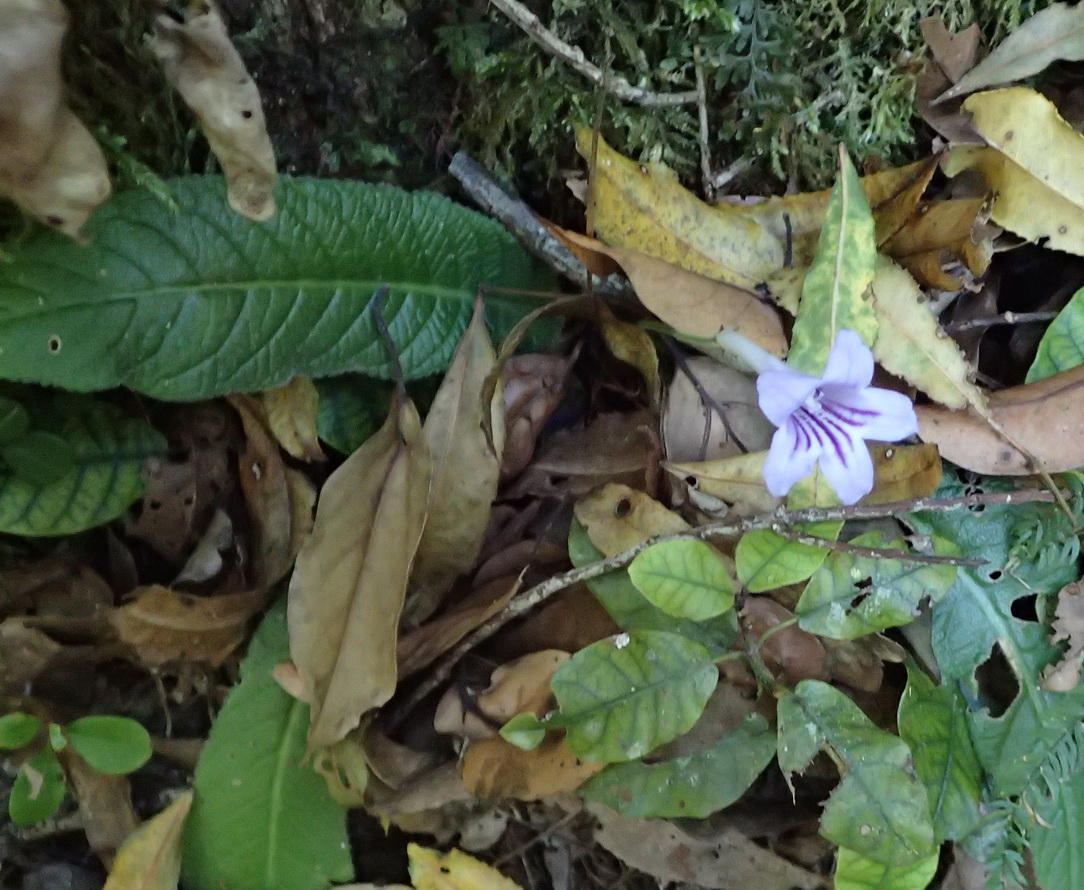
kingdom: Plantae
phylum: Tracheophyta
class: Magnoliopsida
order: Lamiales
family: Gesneriaceae
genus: Streptocarpus
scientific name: Streptocarpus rexii
